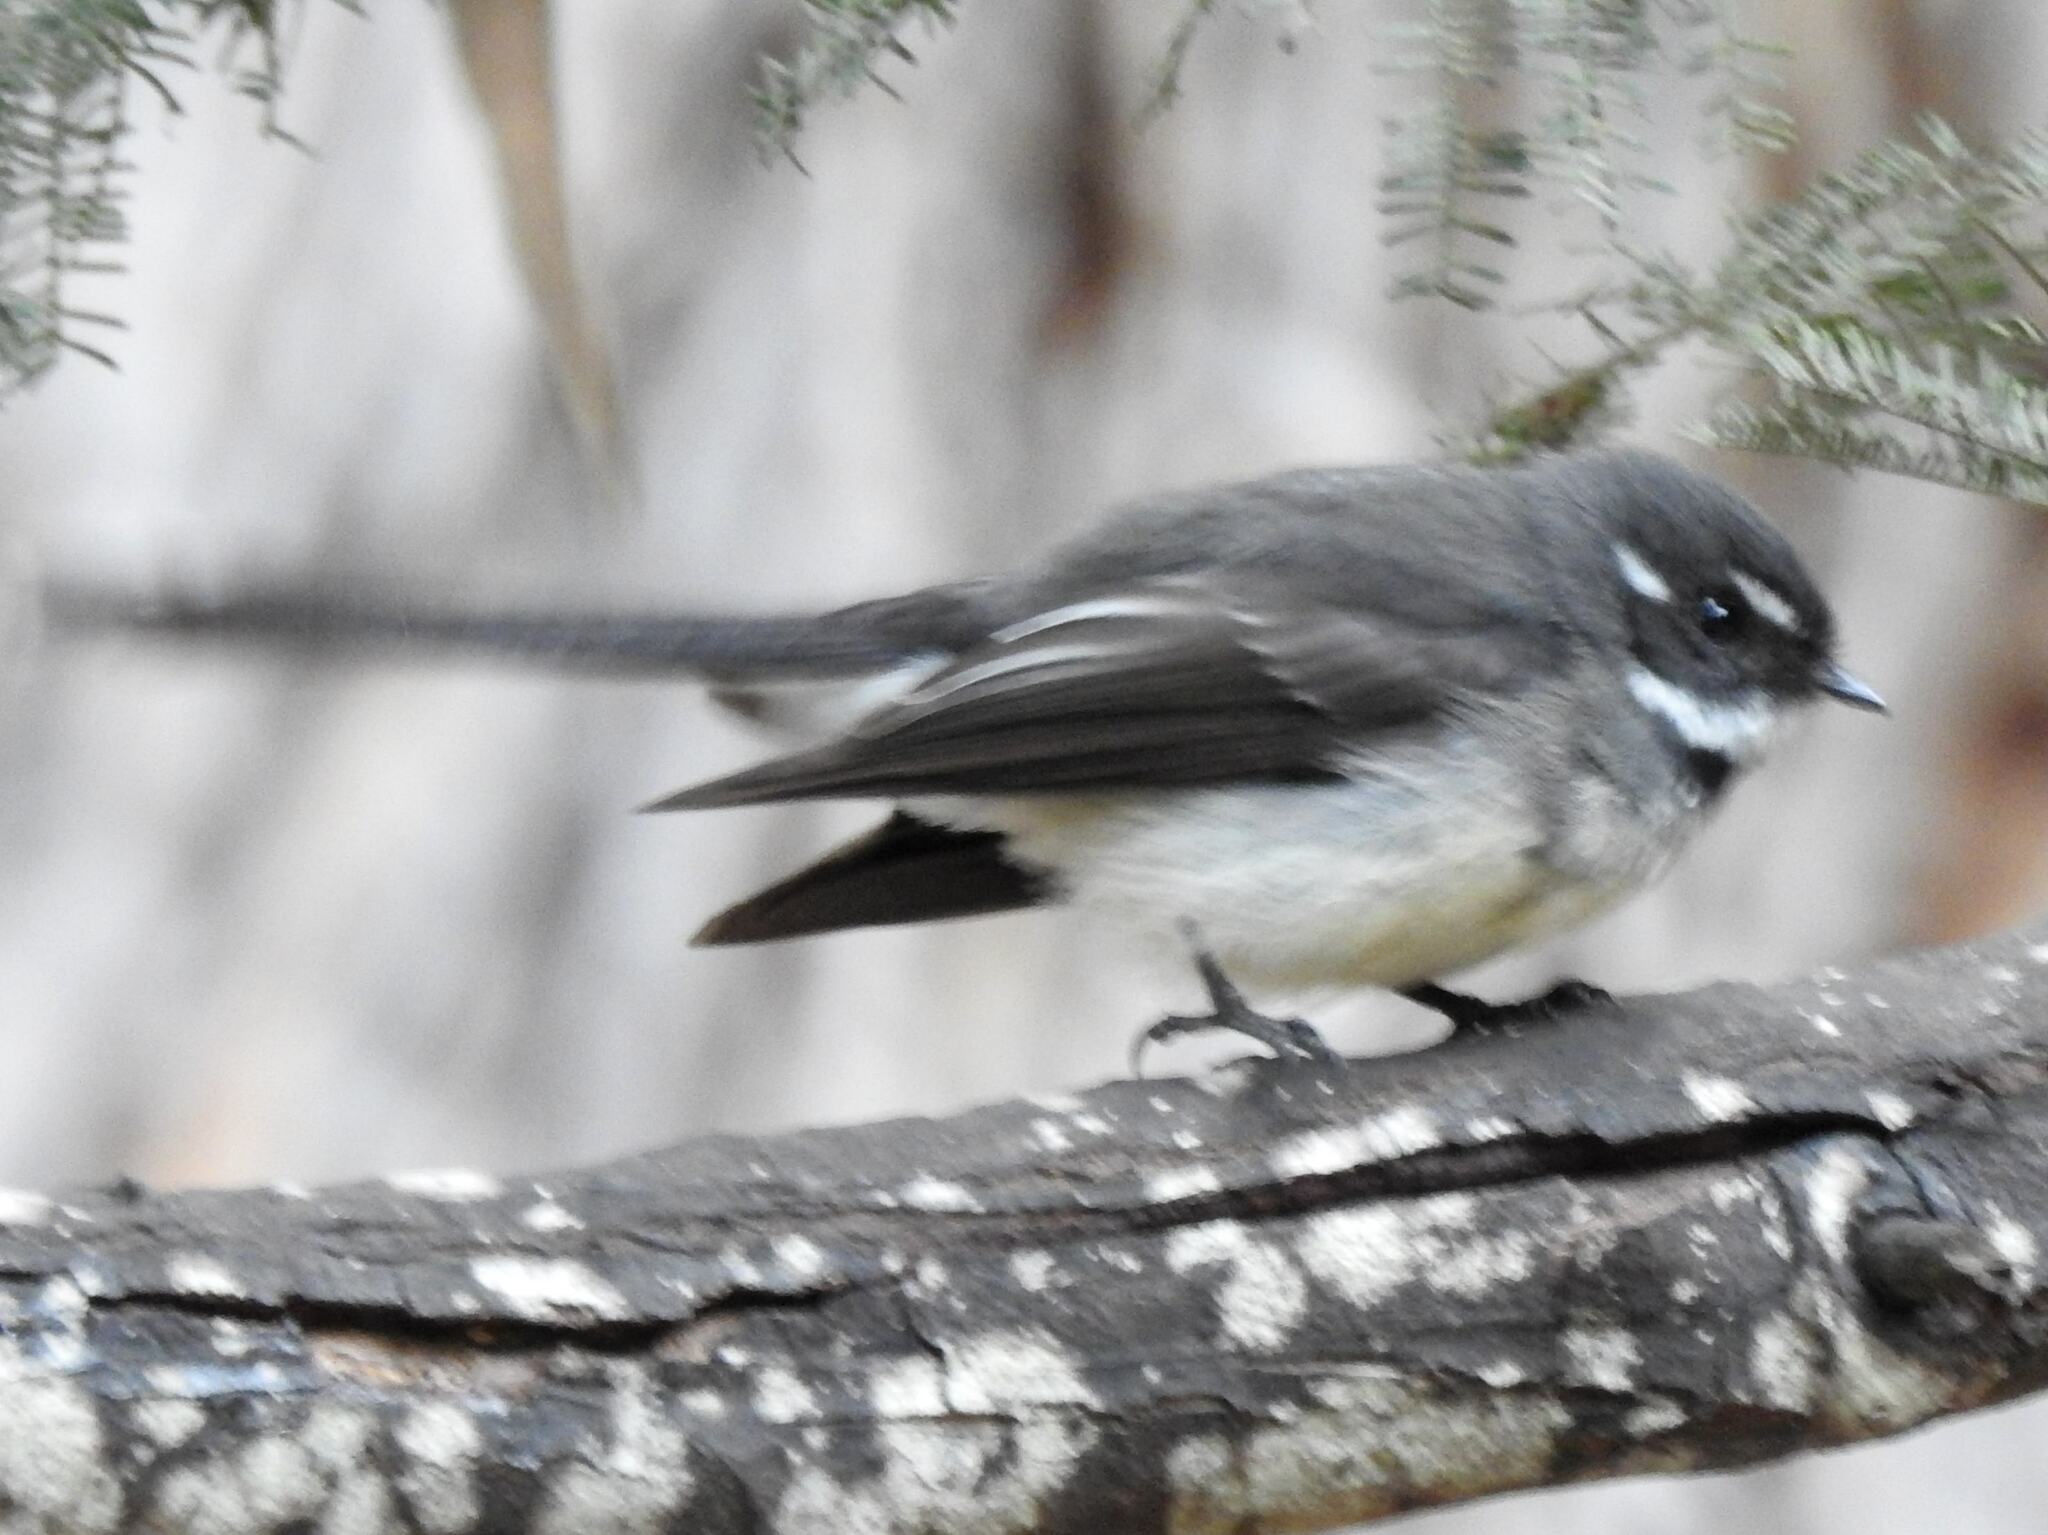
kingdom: Animalia
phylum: Chordata
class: Aves
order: Passeriformes
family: Rhipiduridae
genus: Rhipidura
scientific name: Rhipidura albiscapa
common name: Grey fantail
